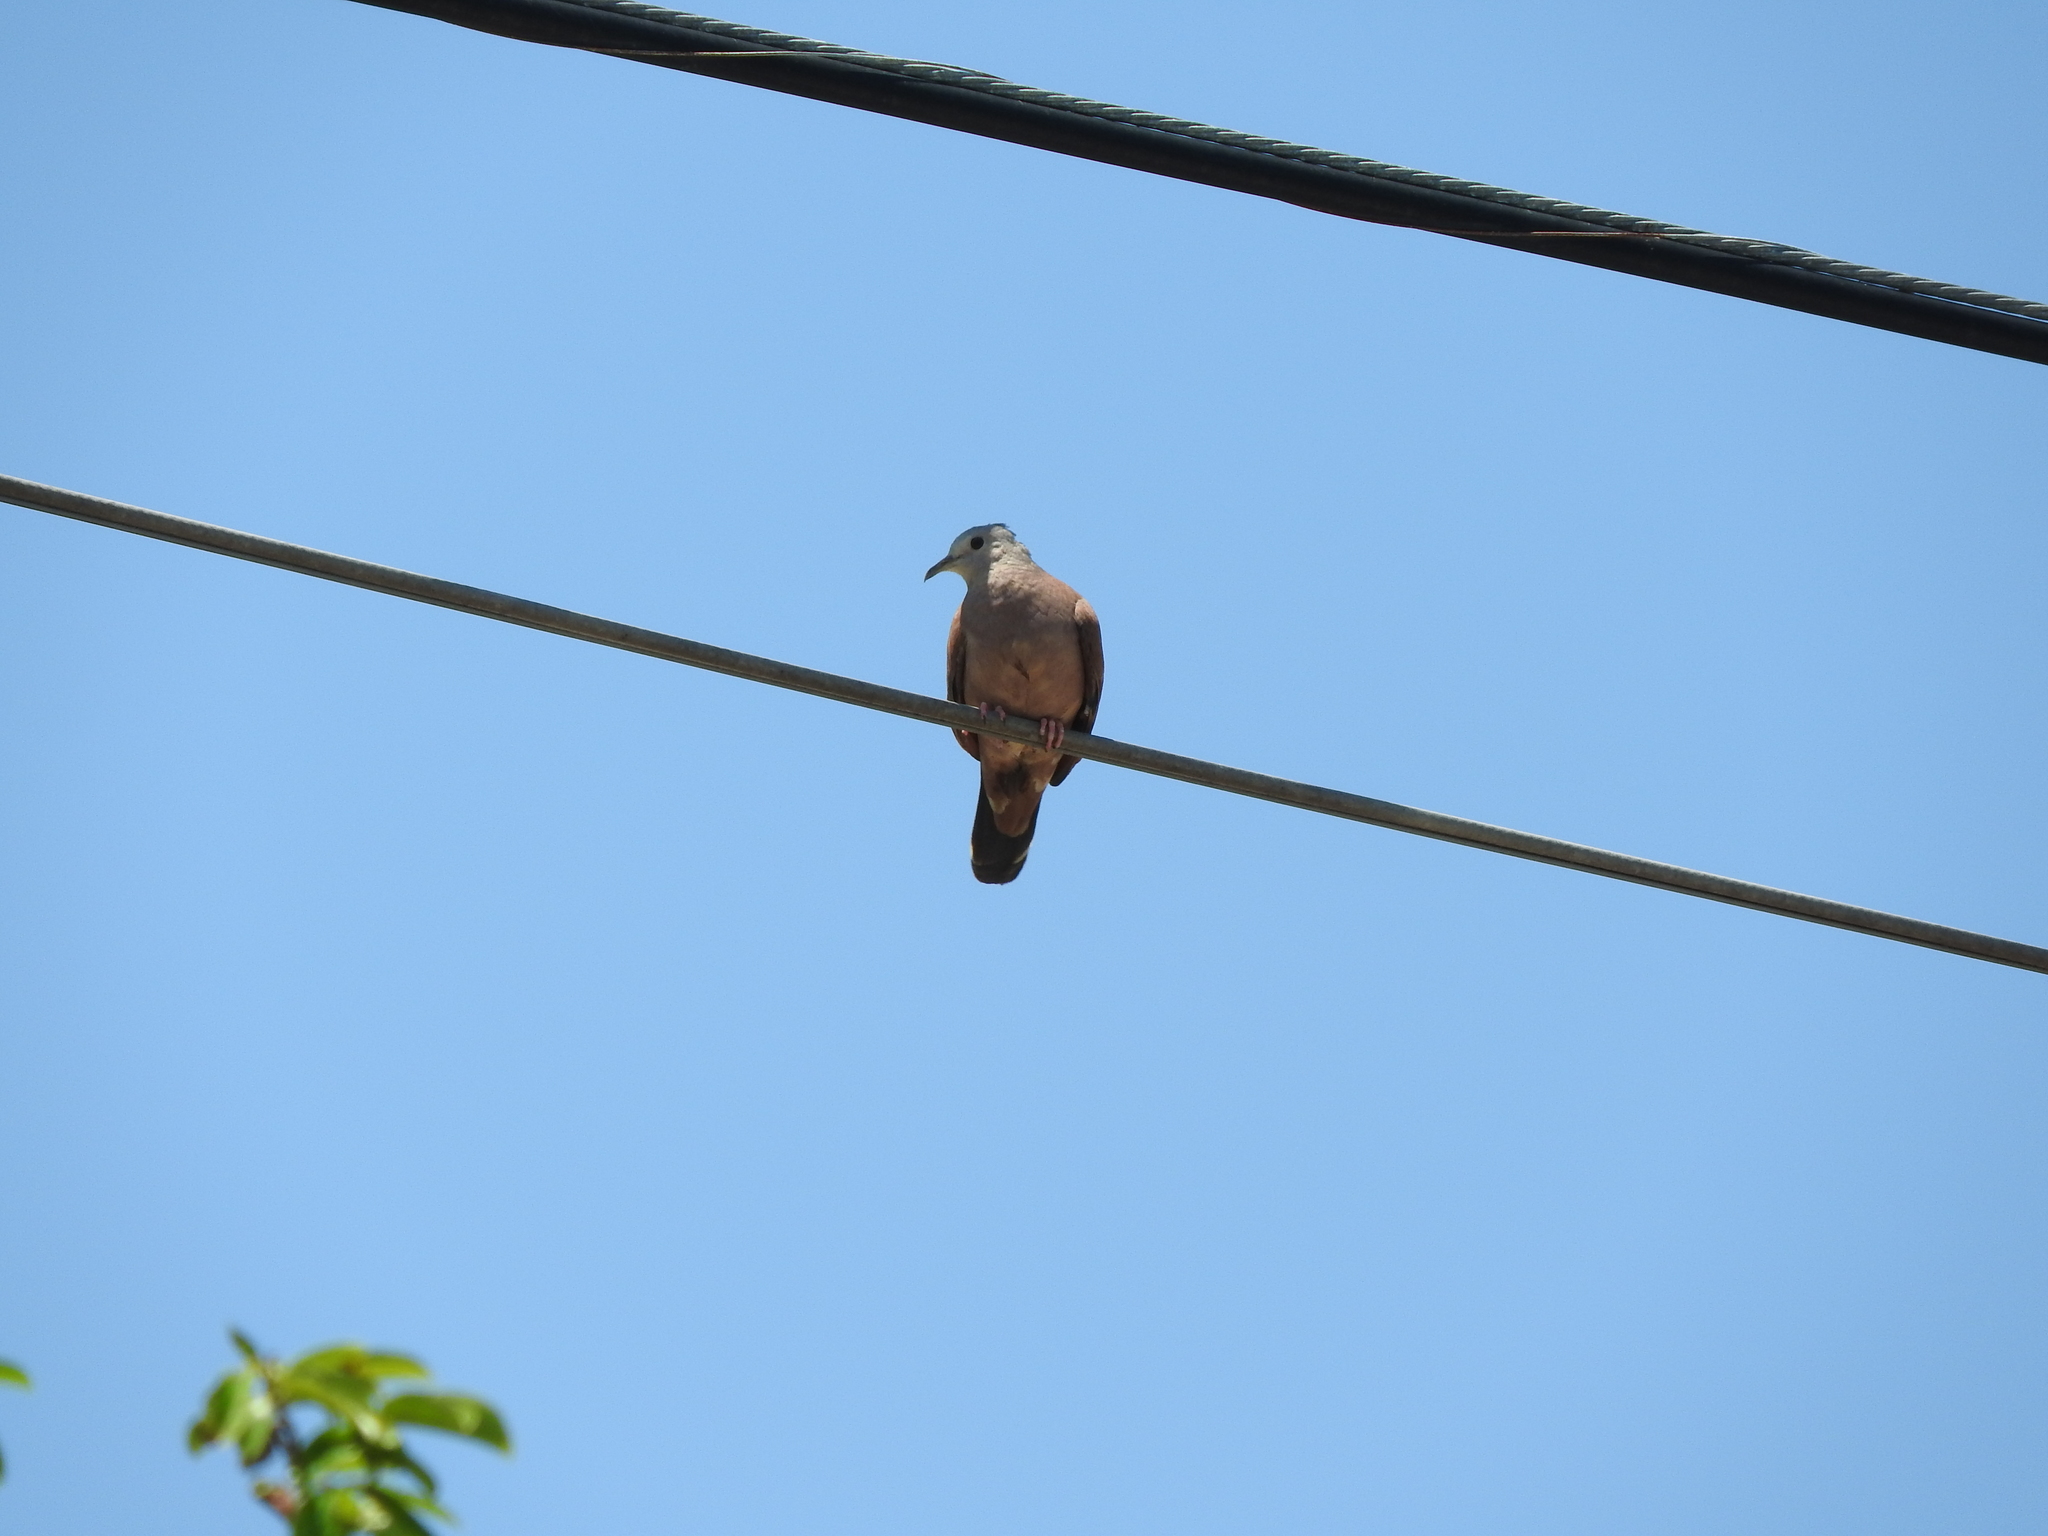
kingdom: Animalia
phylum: Chordata
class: Aves
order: Columbiformes
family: Columbidae
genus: Columbina
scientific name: Columbina talpacoti
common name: Ruddy ground dove
